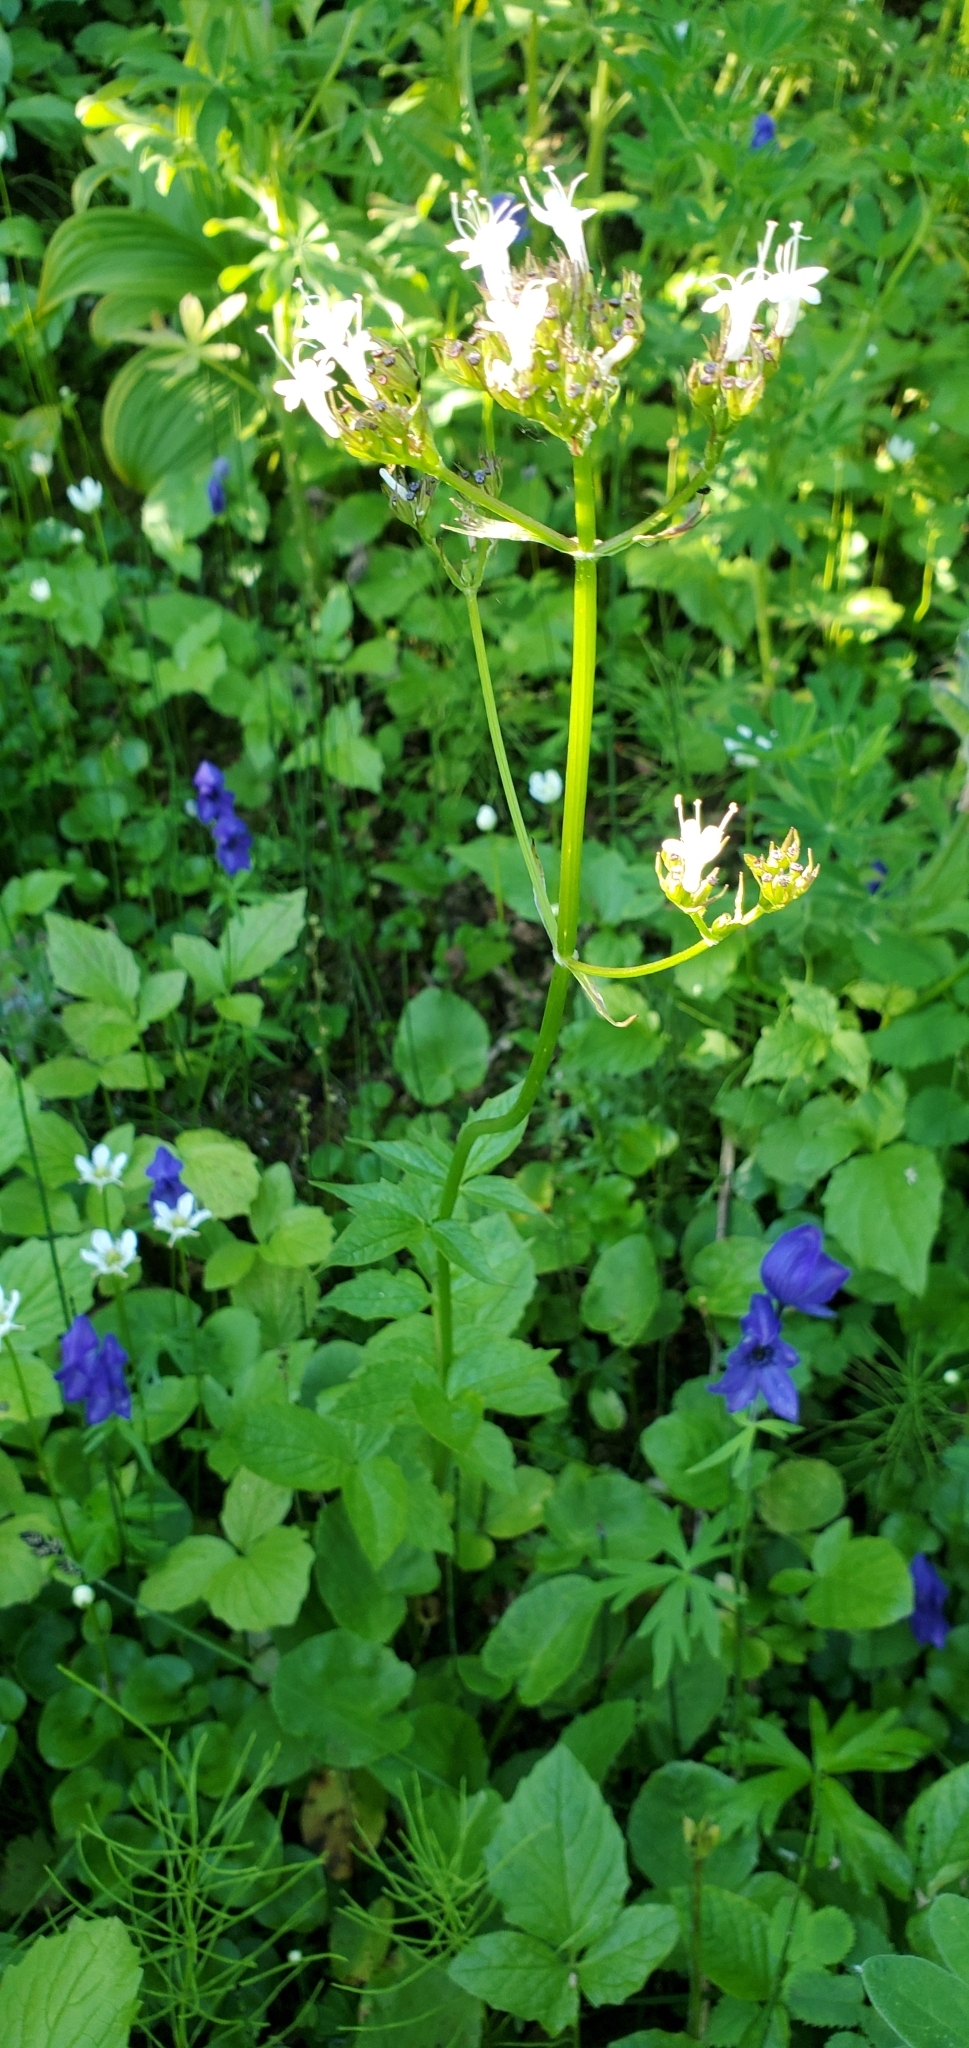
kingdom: Plantae
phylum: Tracheophyta
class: Magnoliopsida
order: Dipsacales
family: Caprifoliaceae
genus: Valeriana
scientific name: Valeriana sitchensis
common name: Pacific valerian
